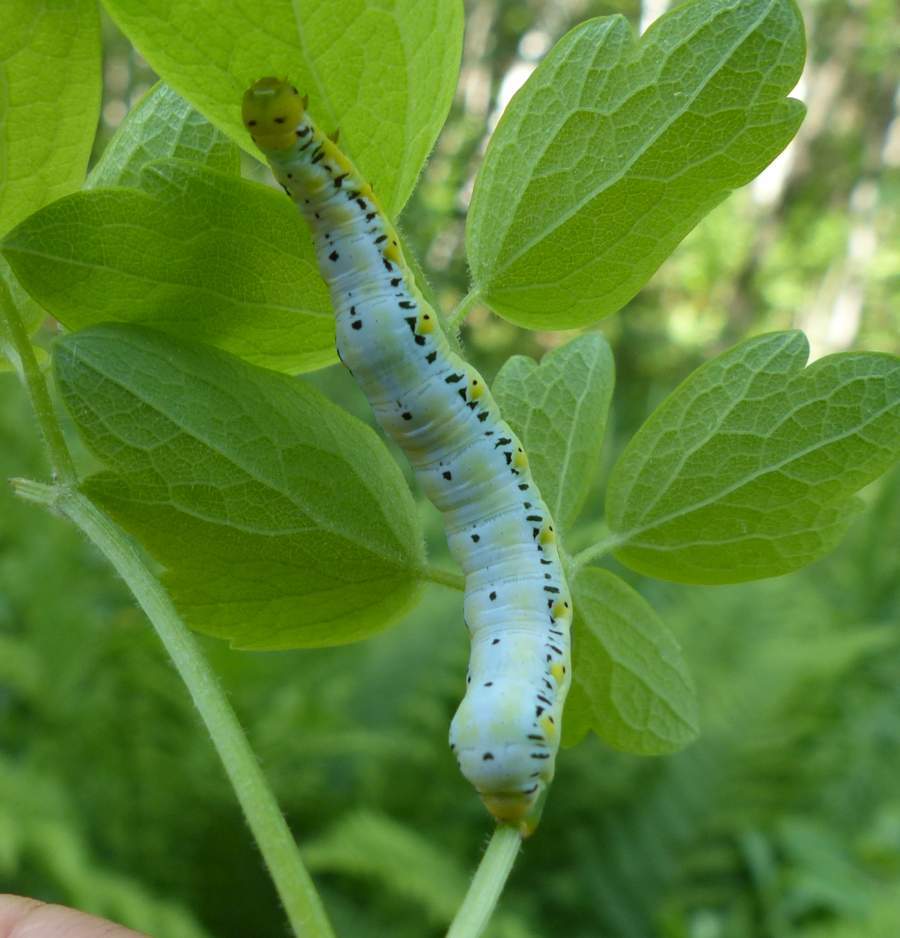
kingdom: Animalia
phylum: Arthropoda
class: Insecta
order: Lepidoptera
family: Erebidae
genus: Calyptra
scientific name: Calyptra canadensis
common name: Canadian owlet
